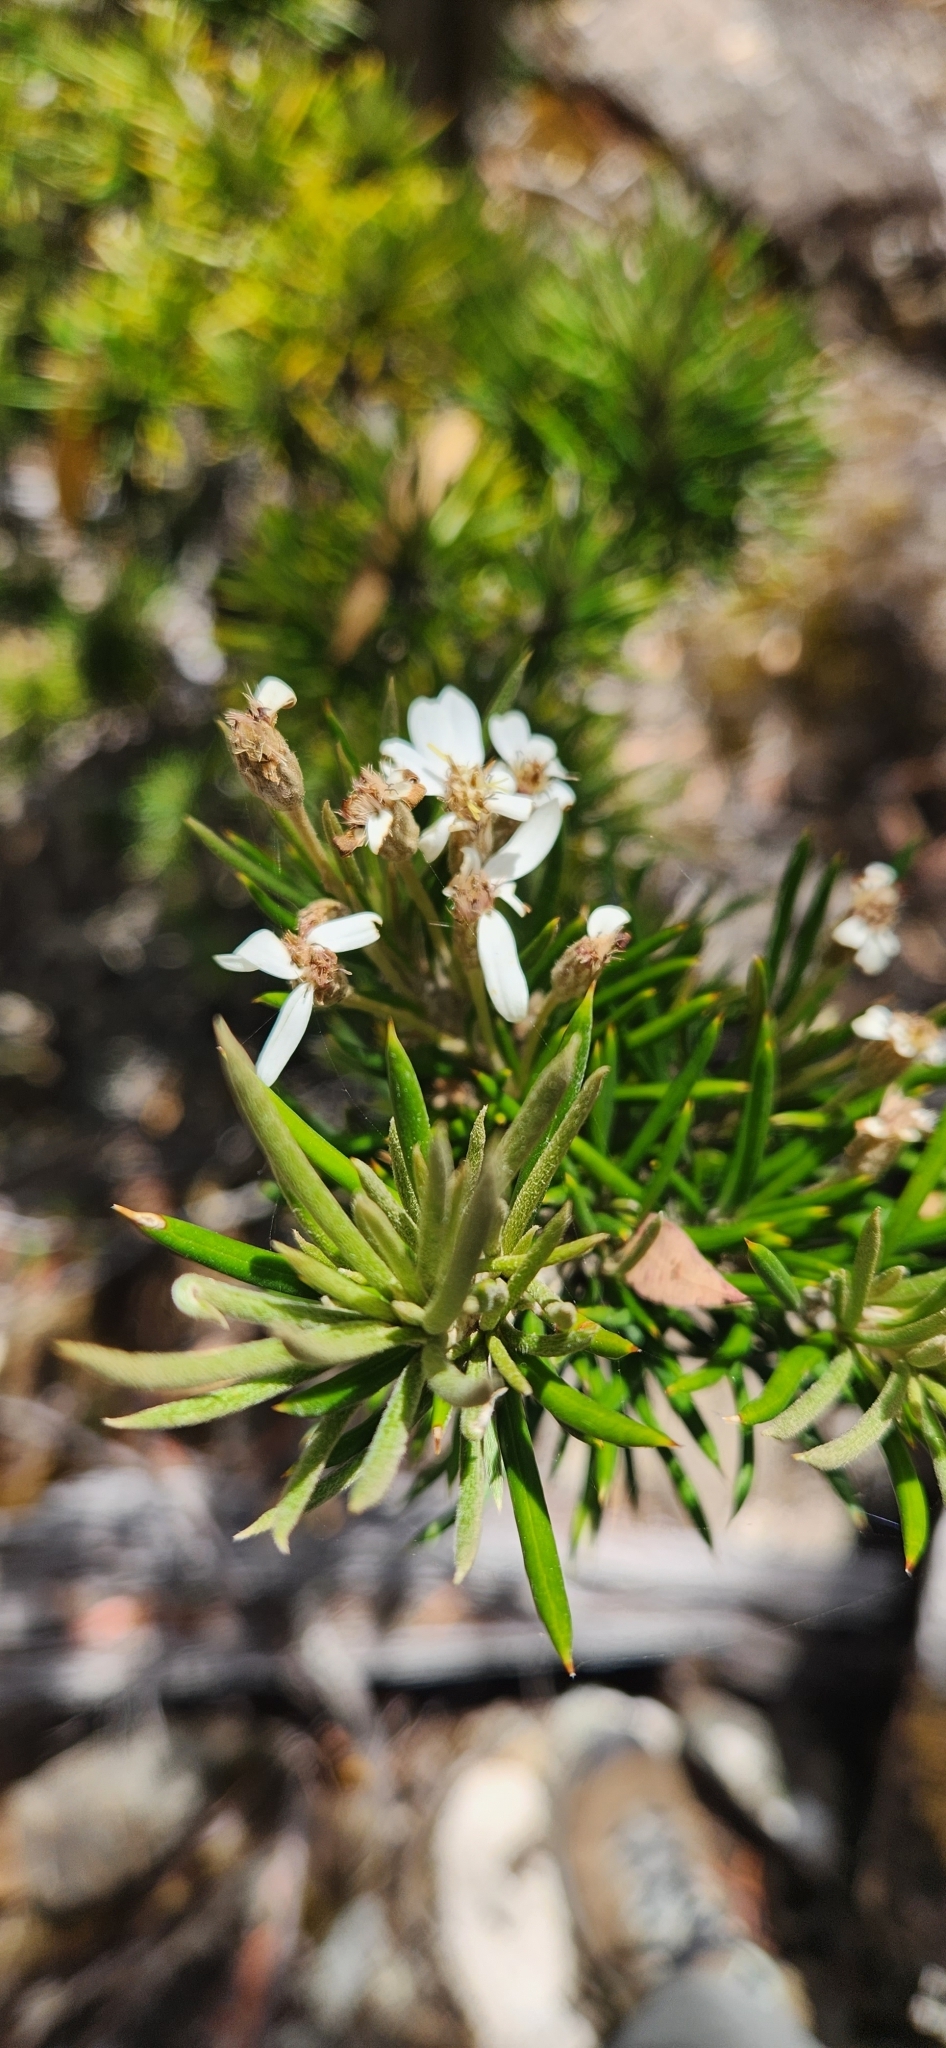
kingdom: Plantae
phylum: Tracheophyta
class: Magnoliopsida
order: Asterales
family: Asteraceae
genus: Olearia
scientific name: Olearia pinifolia
